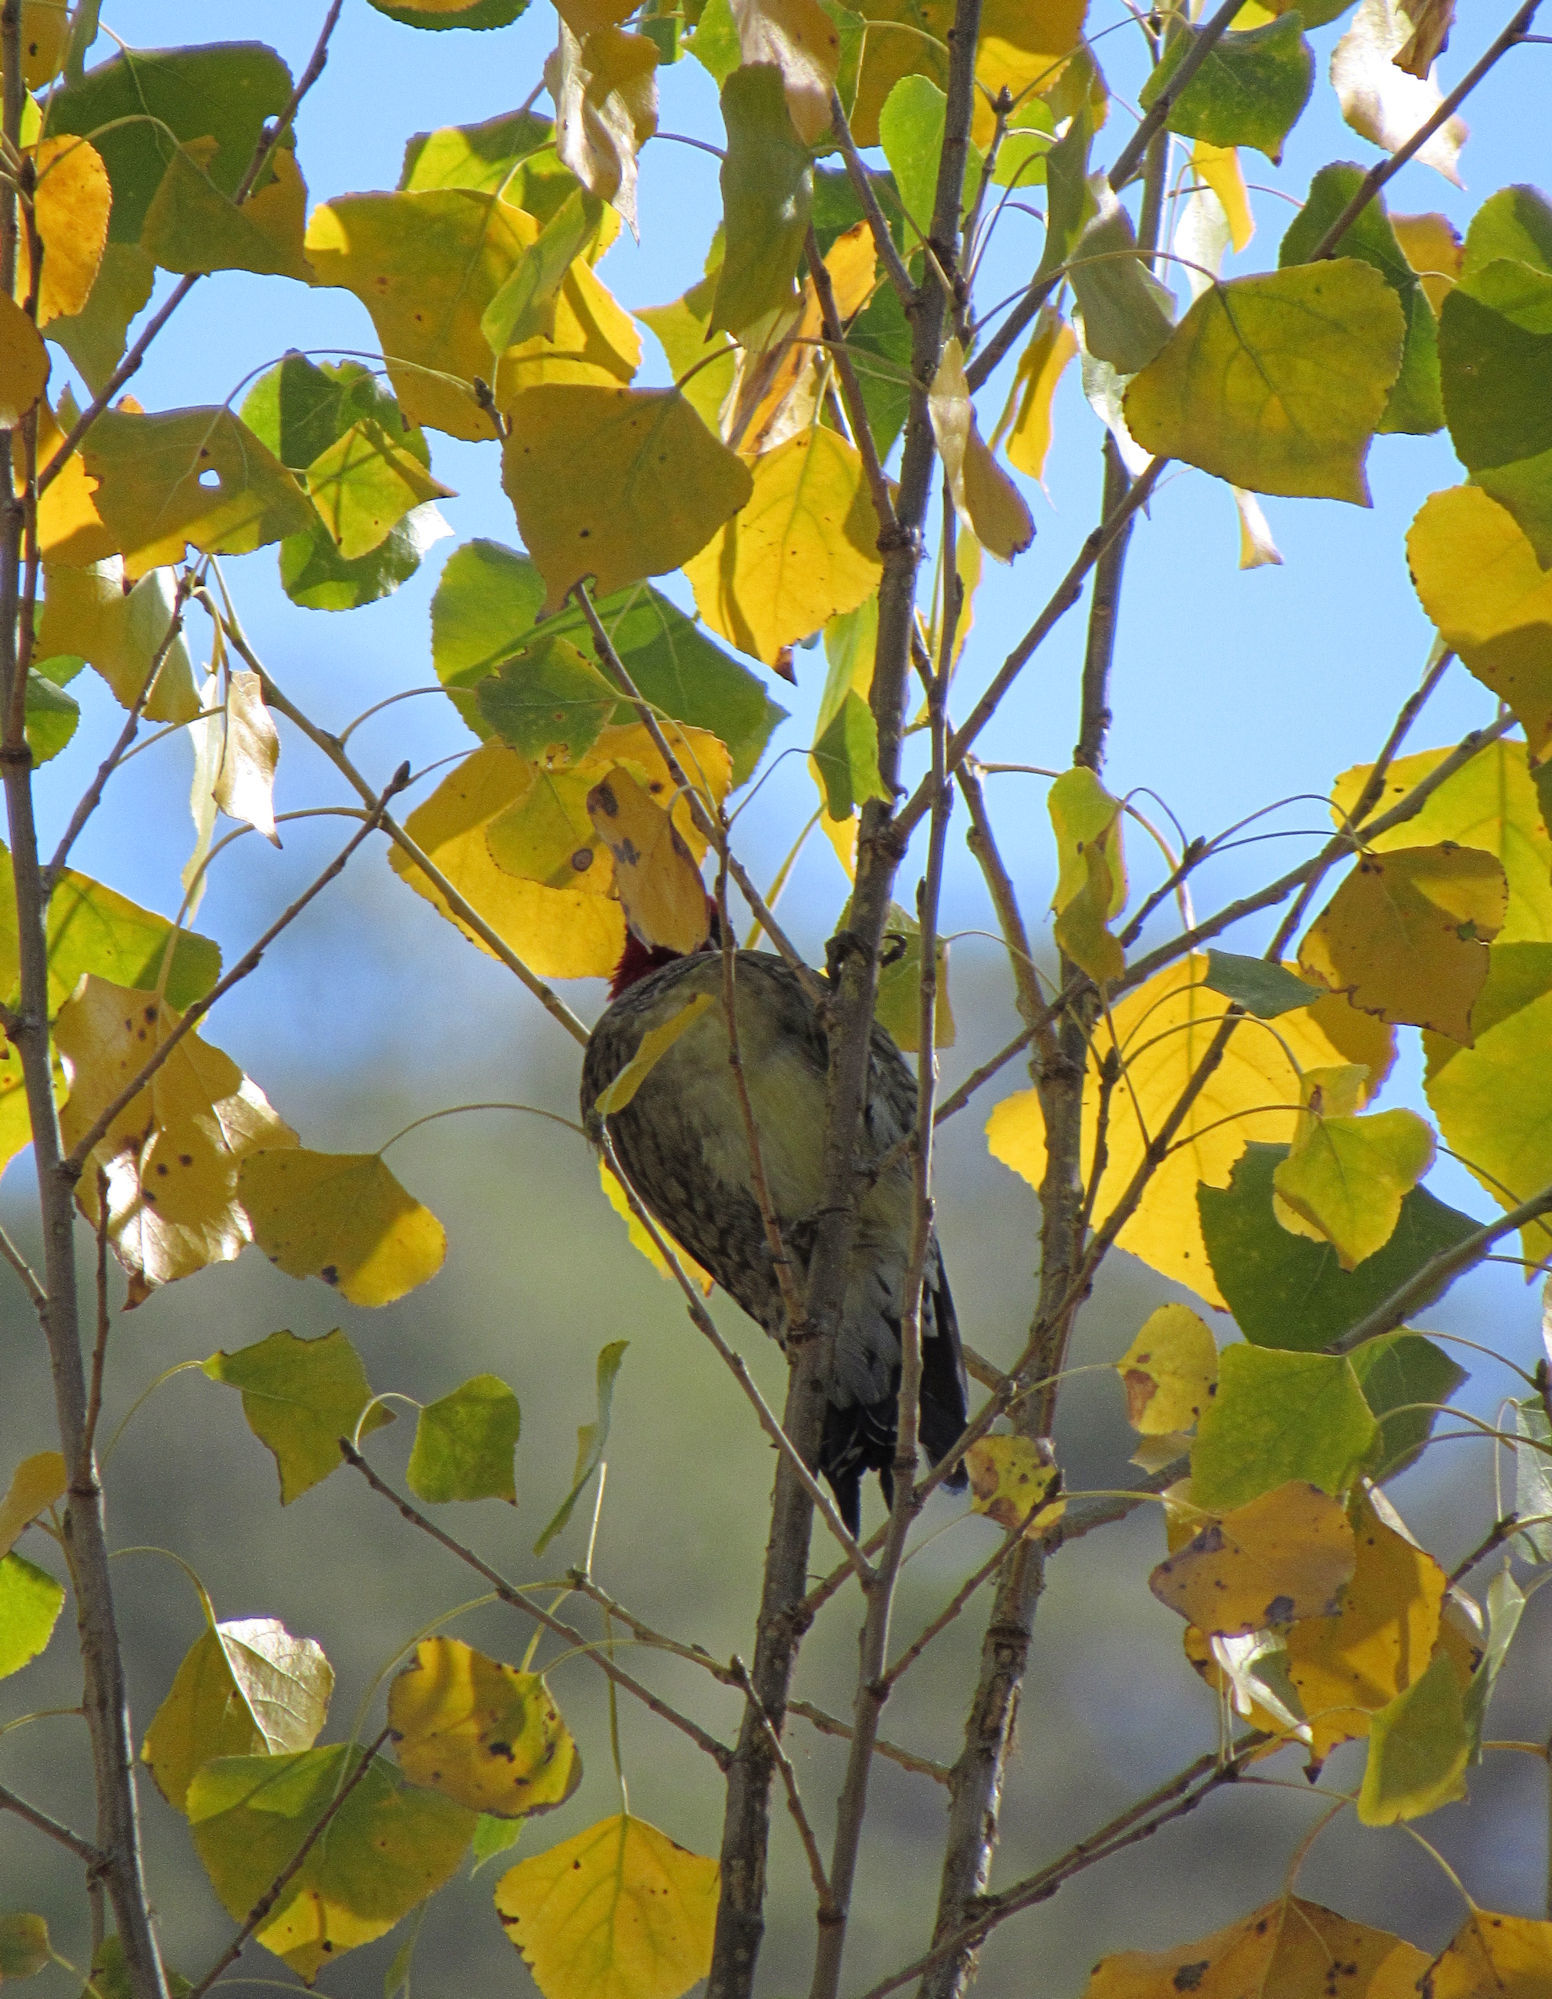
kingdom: Animalia
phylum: Chordata
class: Aves
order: Piciformes
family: Picidae
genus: Sphyrapicus
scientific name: Sphyrapicus nuchalis
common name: Red-naped sapsucker
